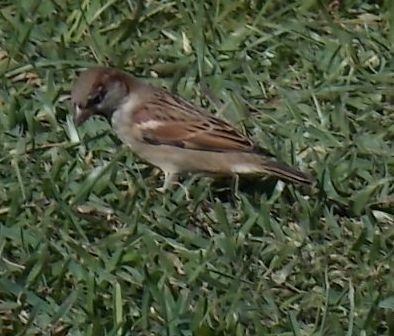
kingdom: Animalia
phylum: Chordata
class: Aves
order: Passeriformes
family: Passeridae
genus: Passer
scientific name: Passer domesticus
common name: House sparrow
